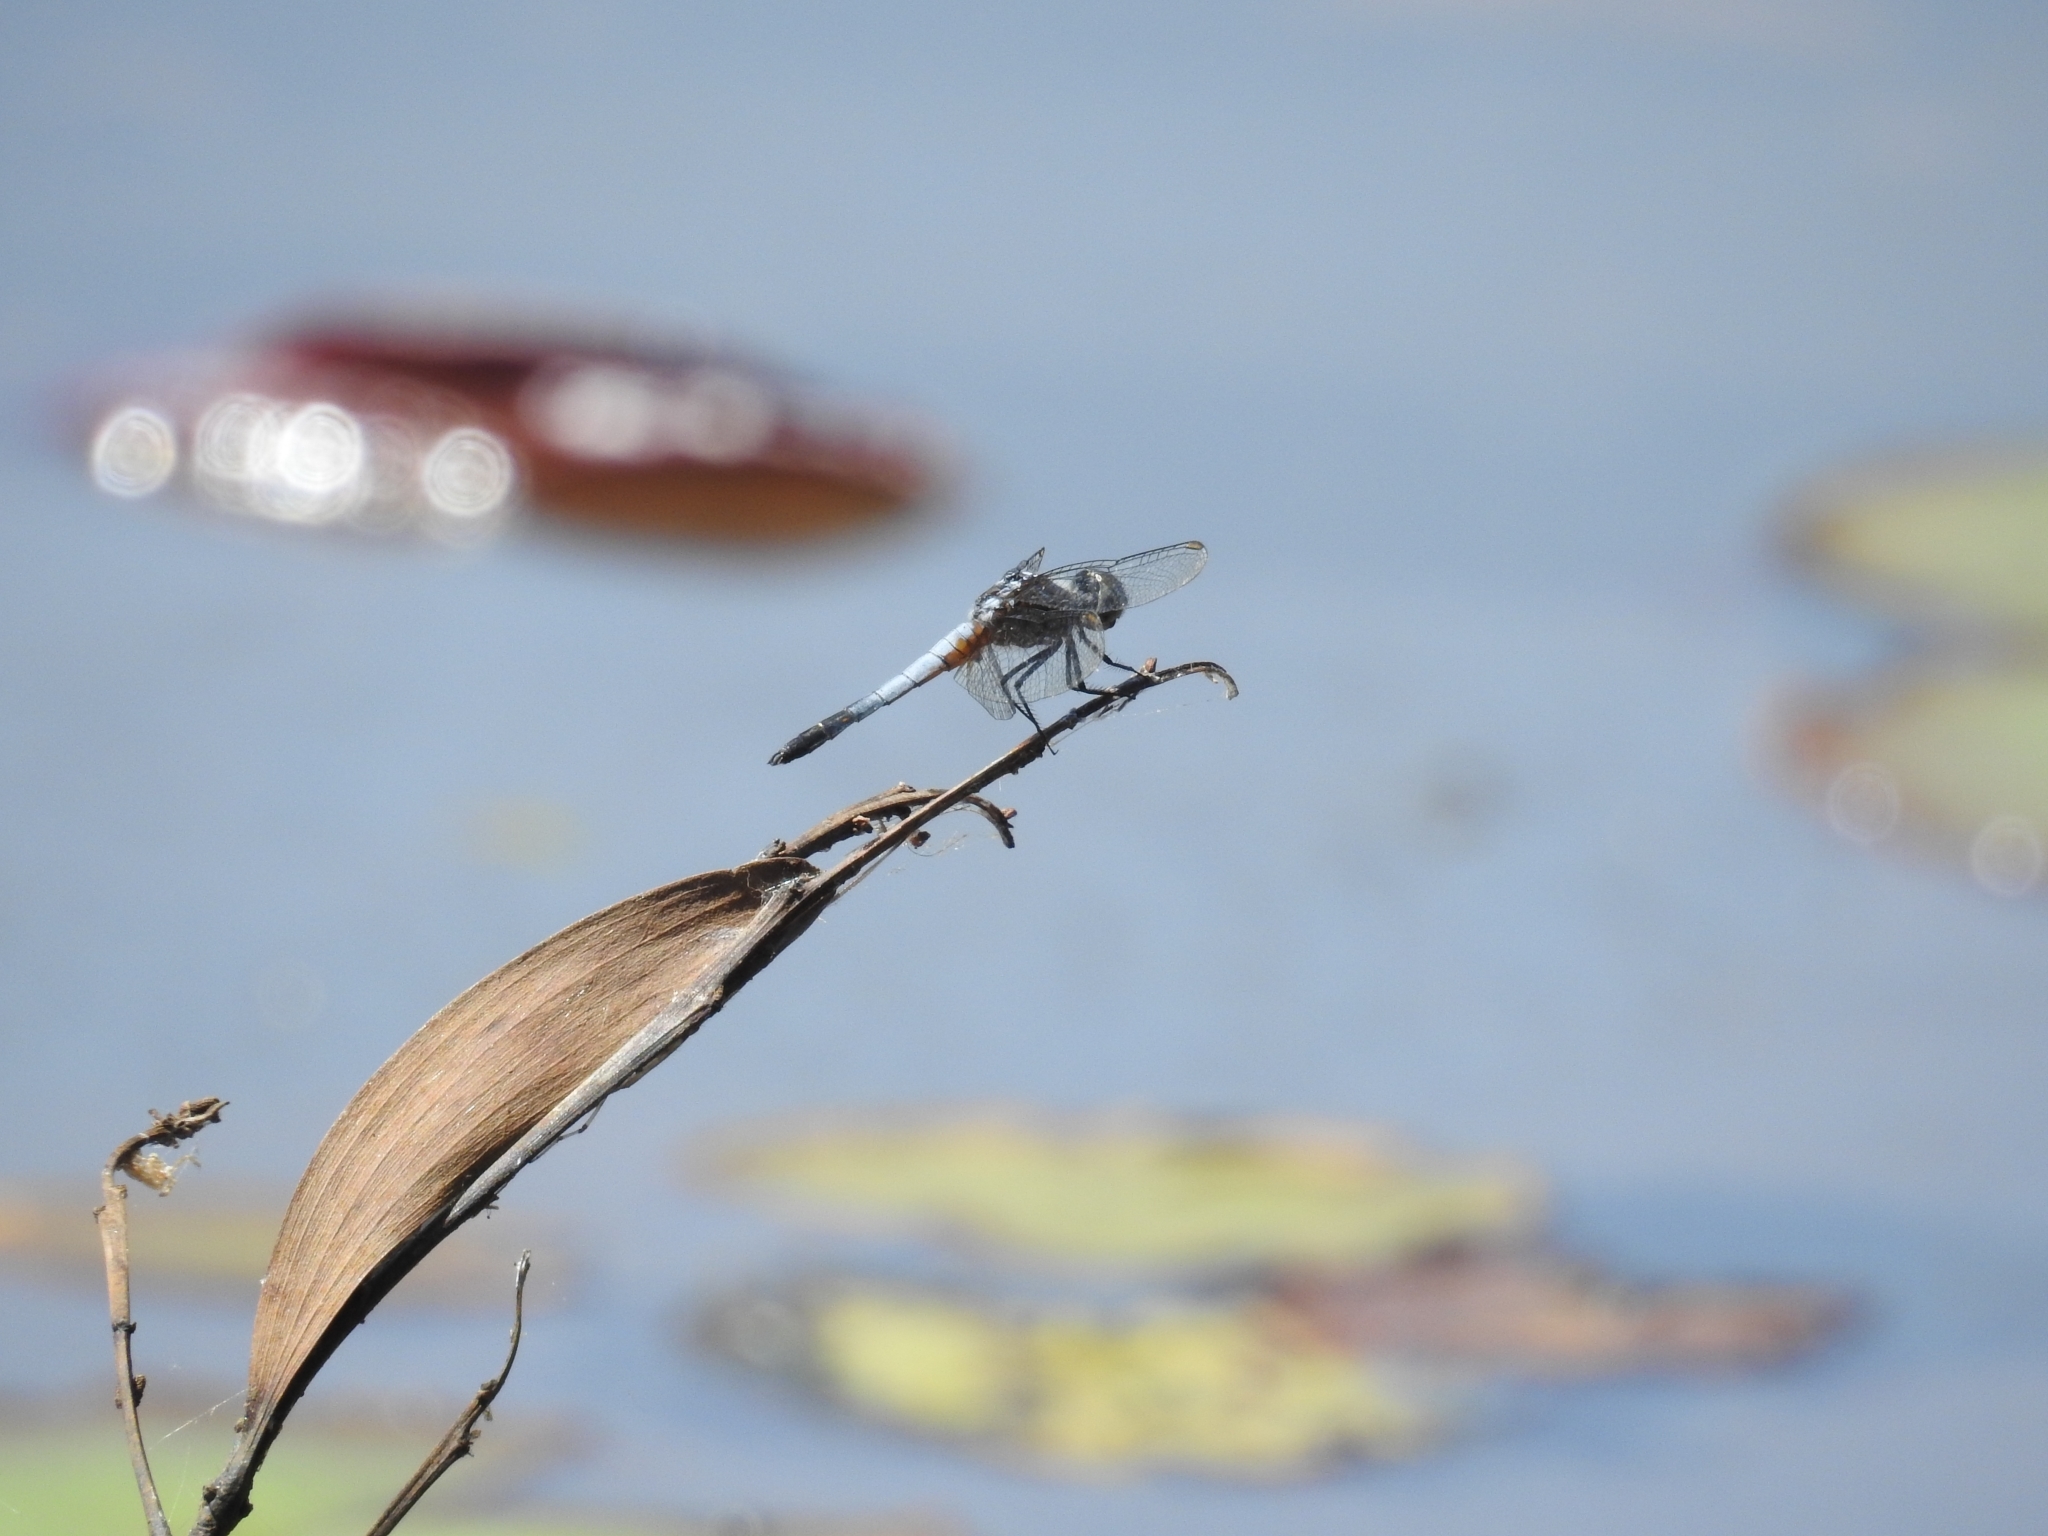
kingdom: Animalia
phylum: Arthropoda
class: Insecta
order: Odonata
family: Libellulidae
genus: Brachydiplax
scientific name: Brachydiplax chalybea
